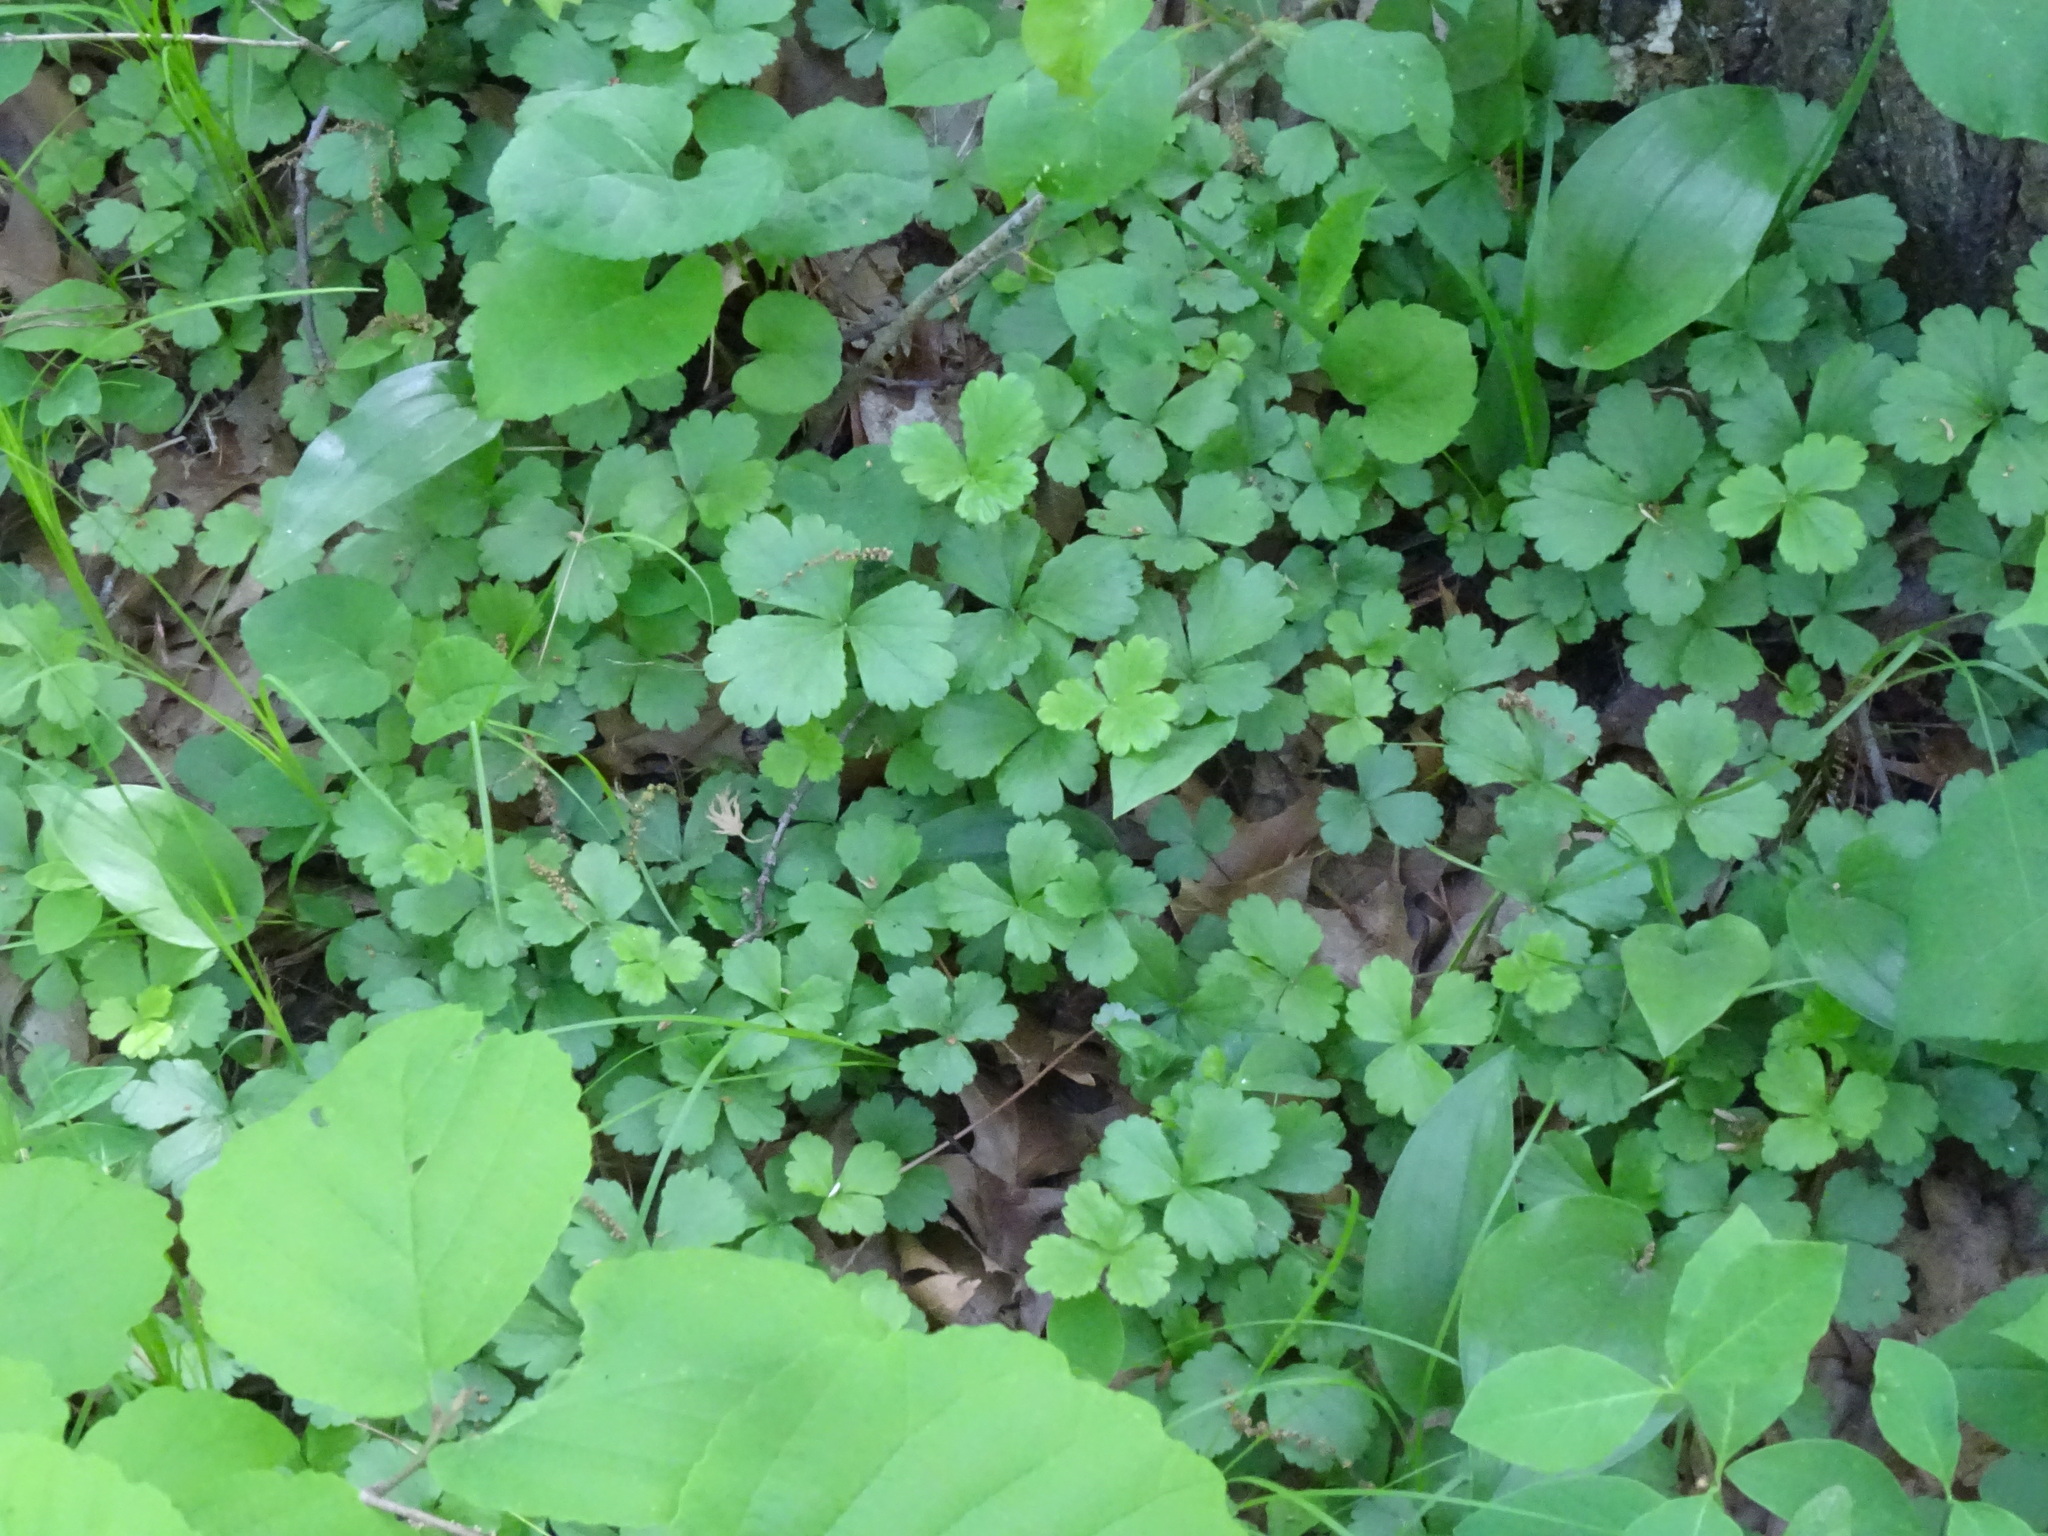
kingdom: Plantae
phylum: Tracheophyta
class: Magnoliopsida
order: Rosales
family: Rosaceae
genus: Geum
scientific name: Geum fragarioides
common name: Appalachian barren strawberry
